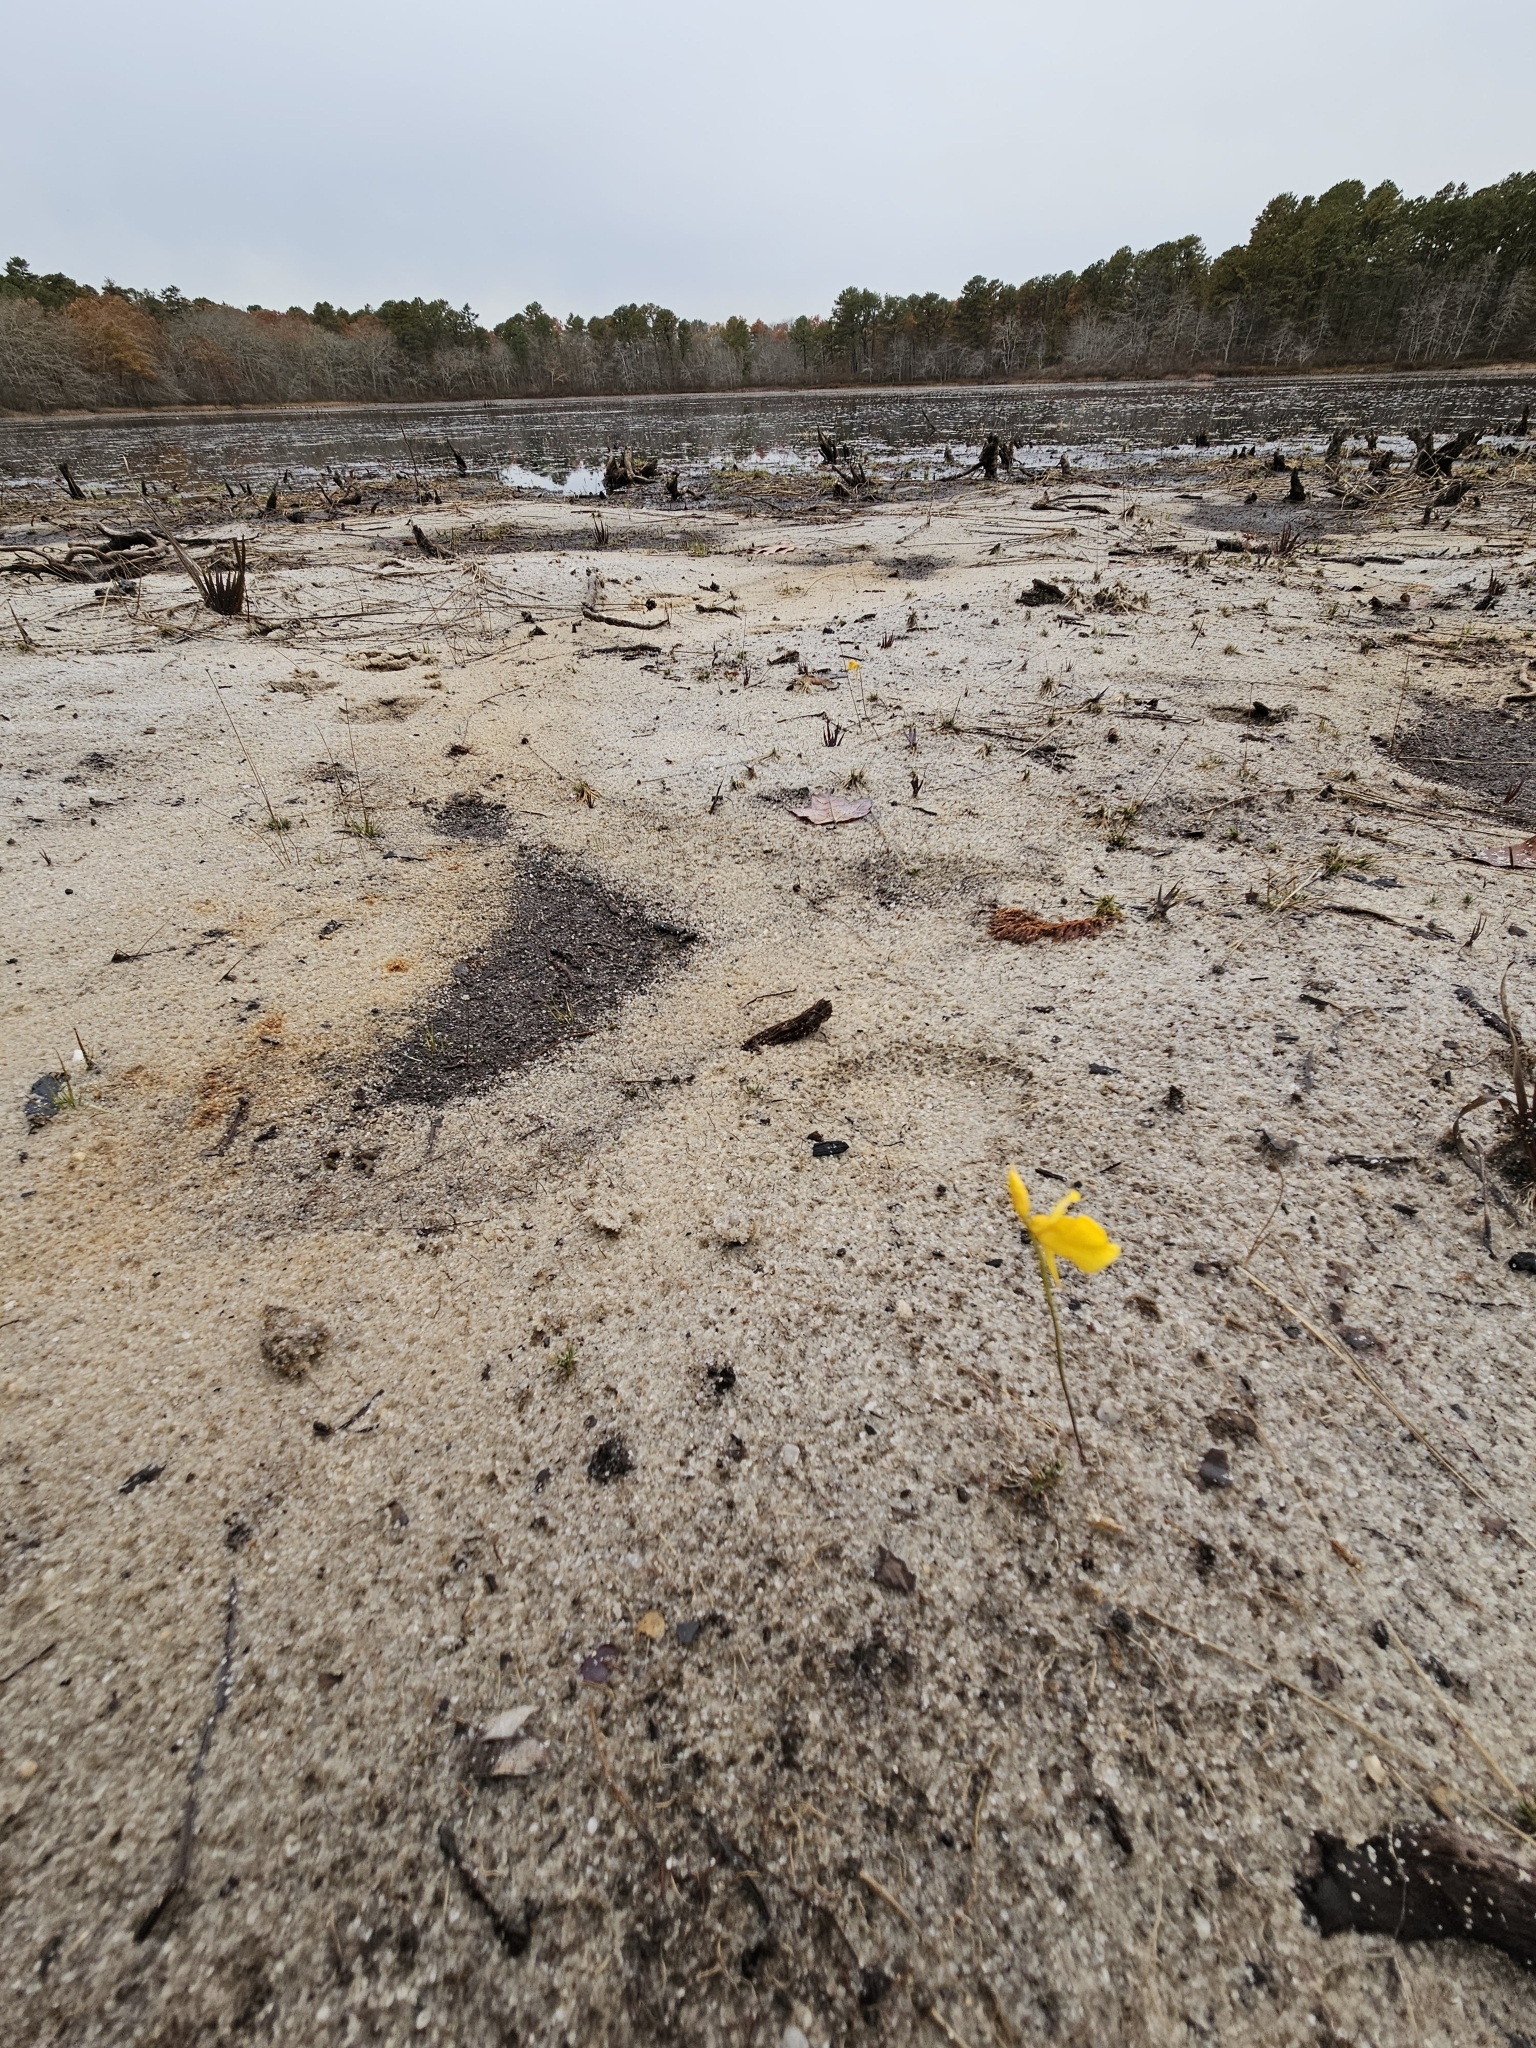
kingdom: Plantae
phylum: Tracheophyta
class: Magnoliopsida
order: Lamiales
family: Lentibulariaceae
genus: Utricularia
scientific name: Utricularia cornuta
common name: Horned bladderwort
